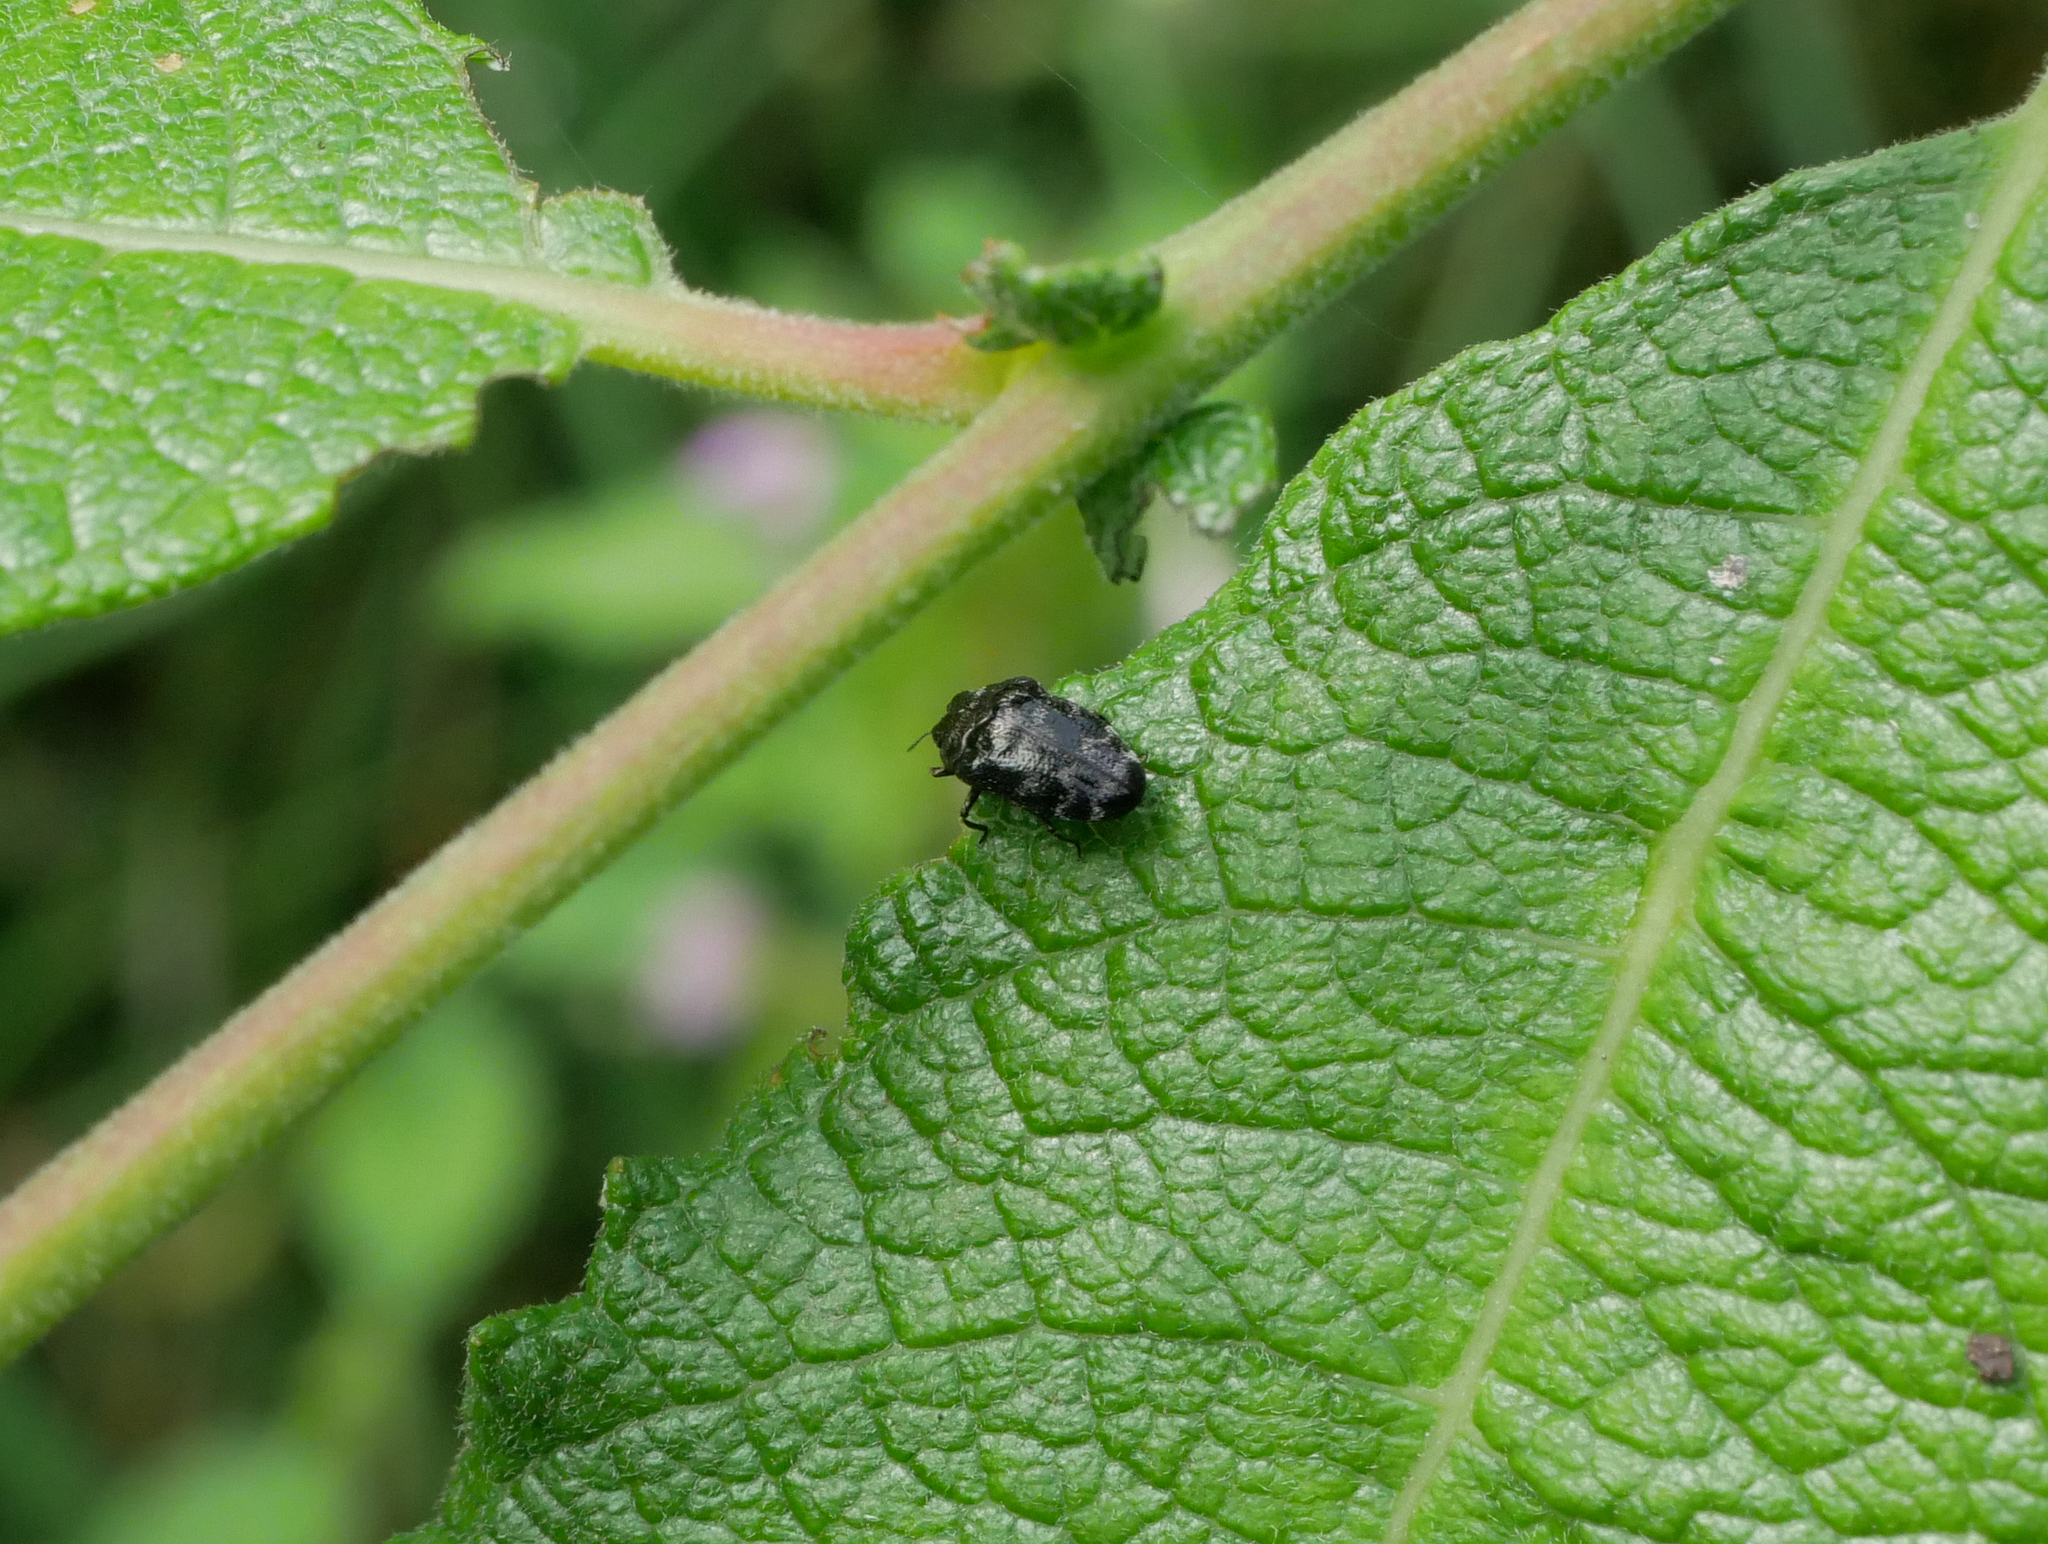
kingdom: Animalia
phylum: Arthropoda
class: Insecta
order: Coleoptera
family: Buprestidae
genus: Trachys
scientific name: Trachys minutus
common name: Metallic wood-boring beetle
